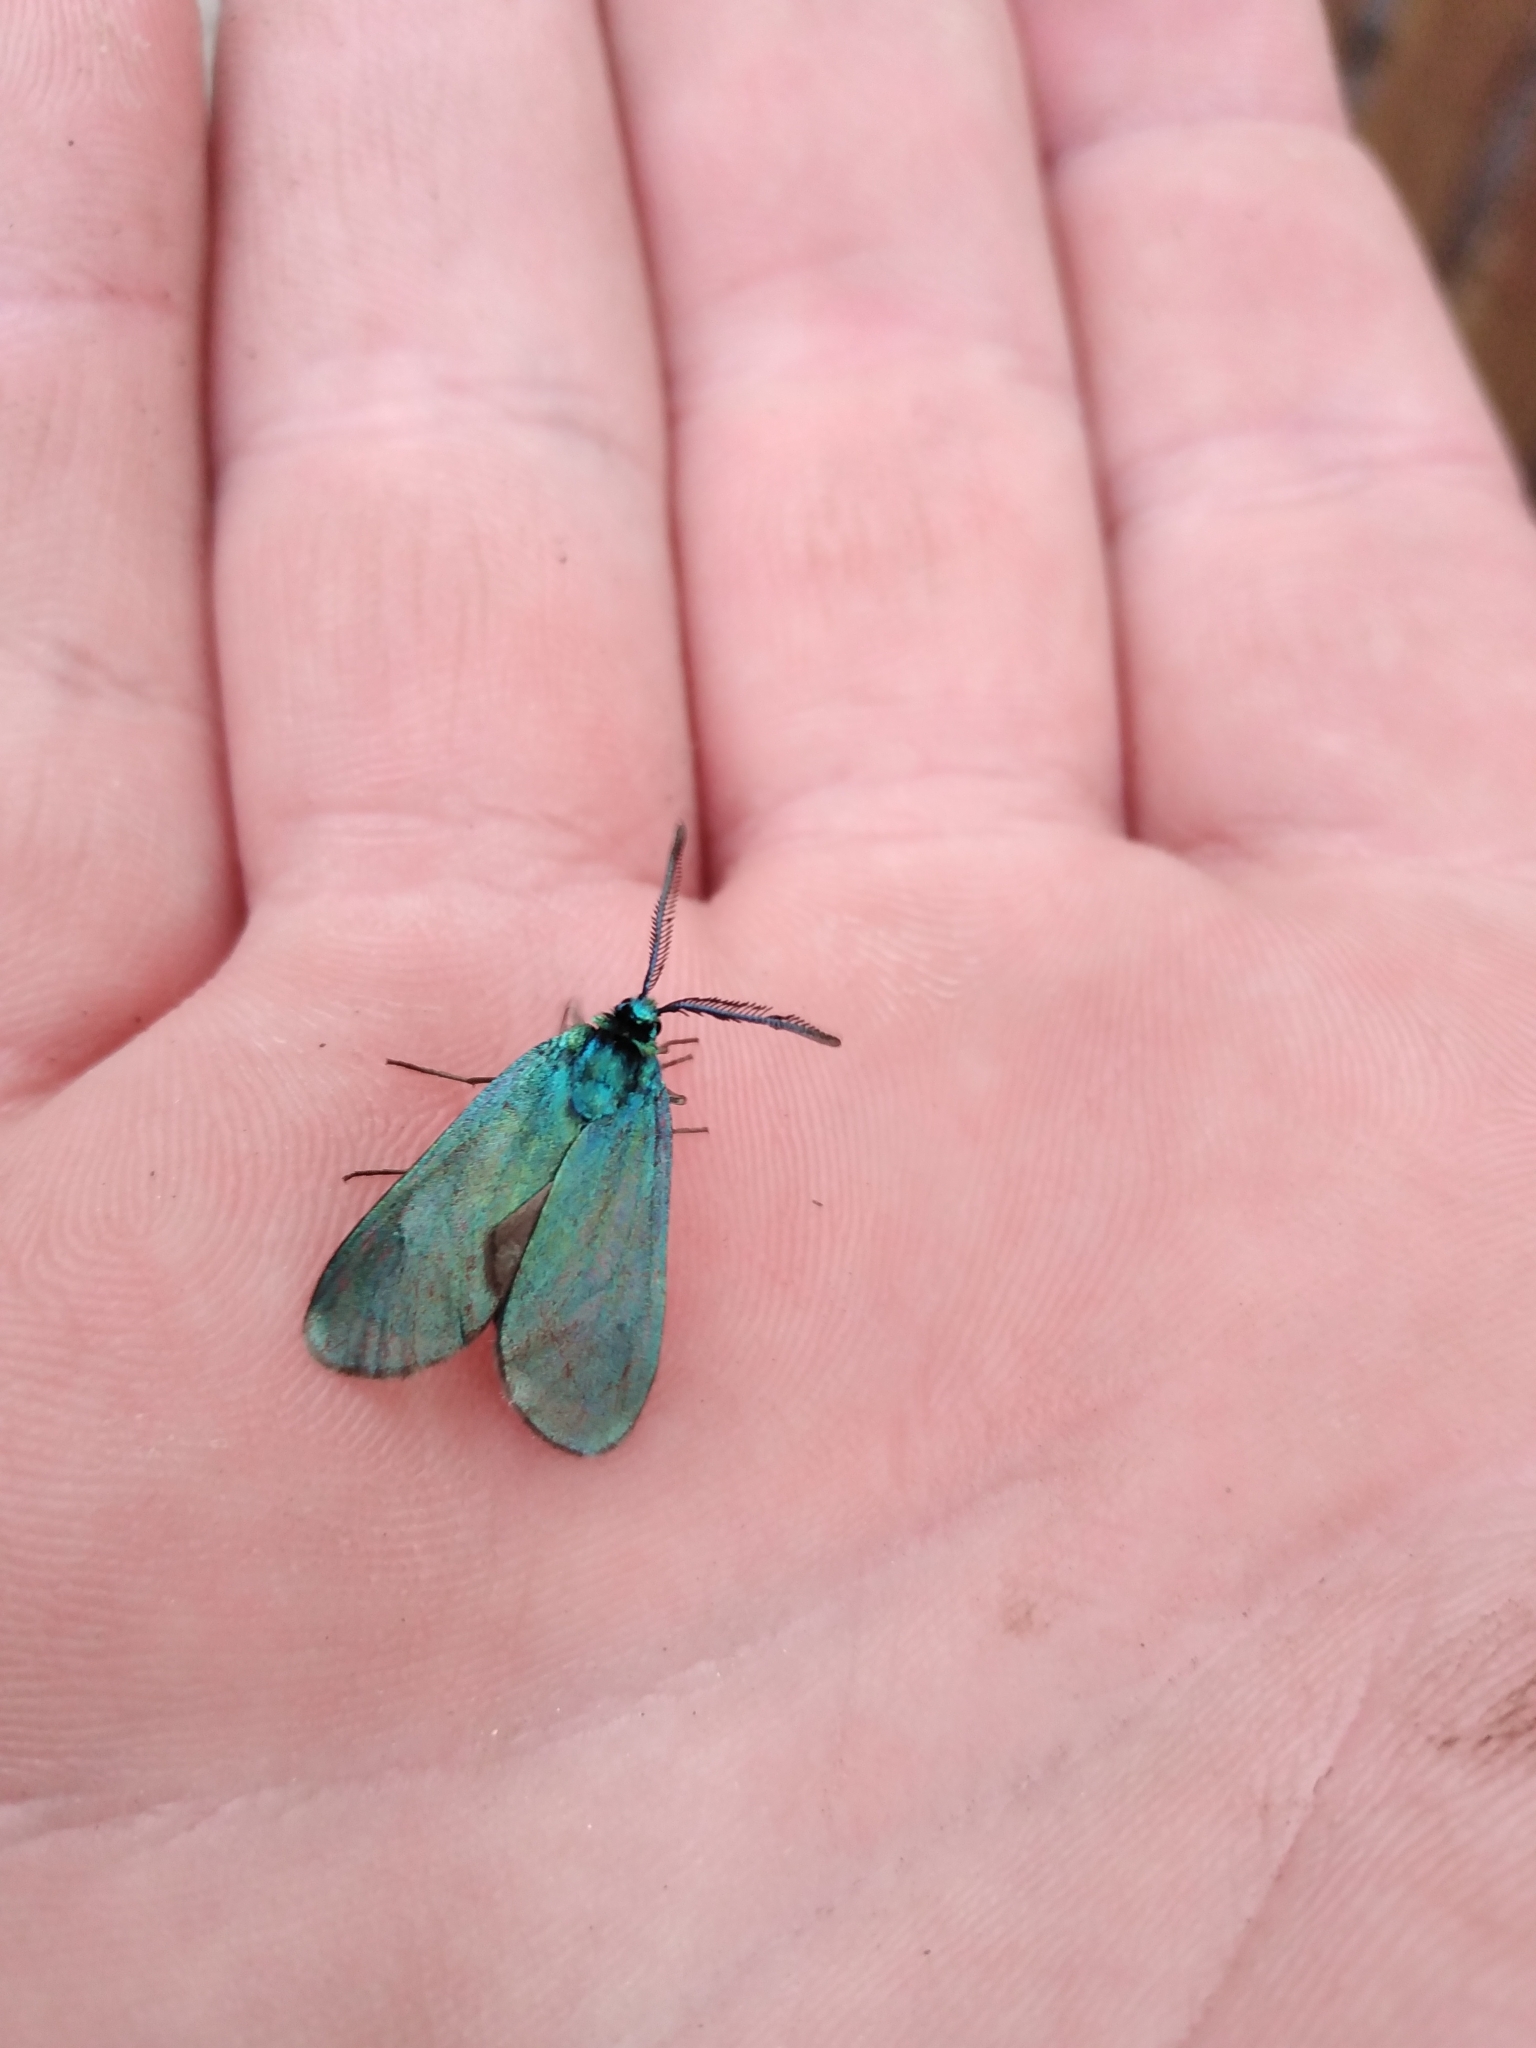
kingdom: Animalia
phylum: Arthropoda
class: Insecta
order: Lepidoptera
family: Zygaenidae
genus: Adscita
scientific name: Adscita statices
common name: Forester
